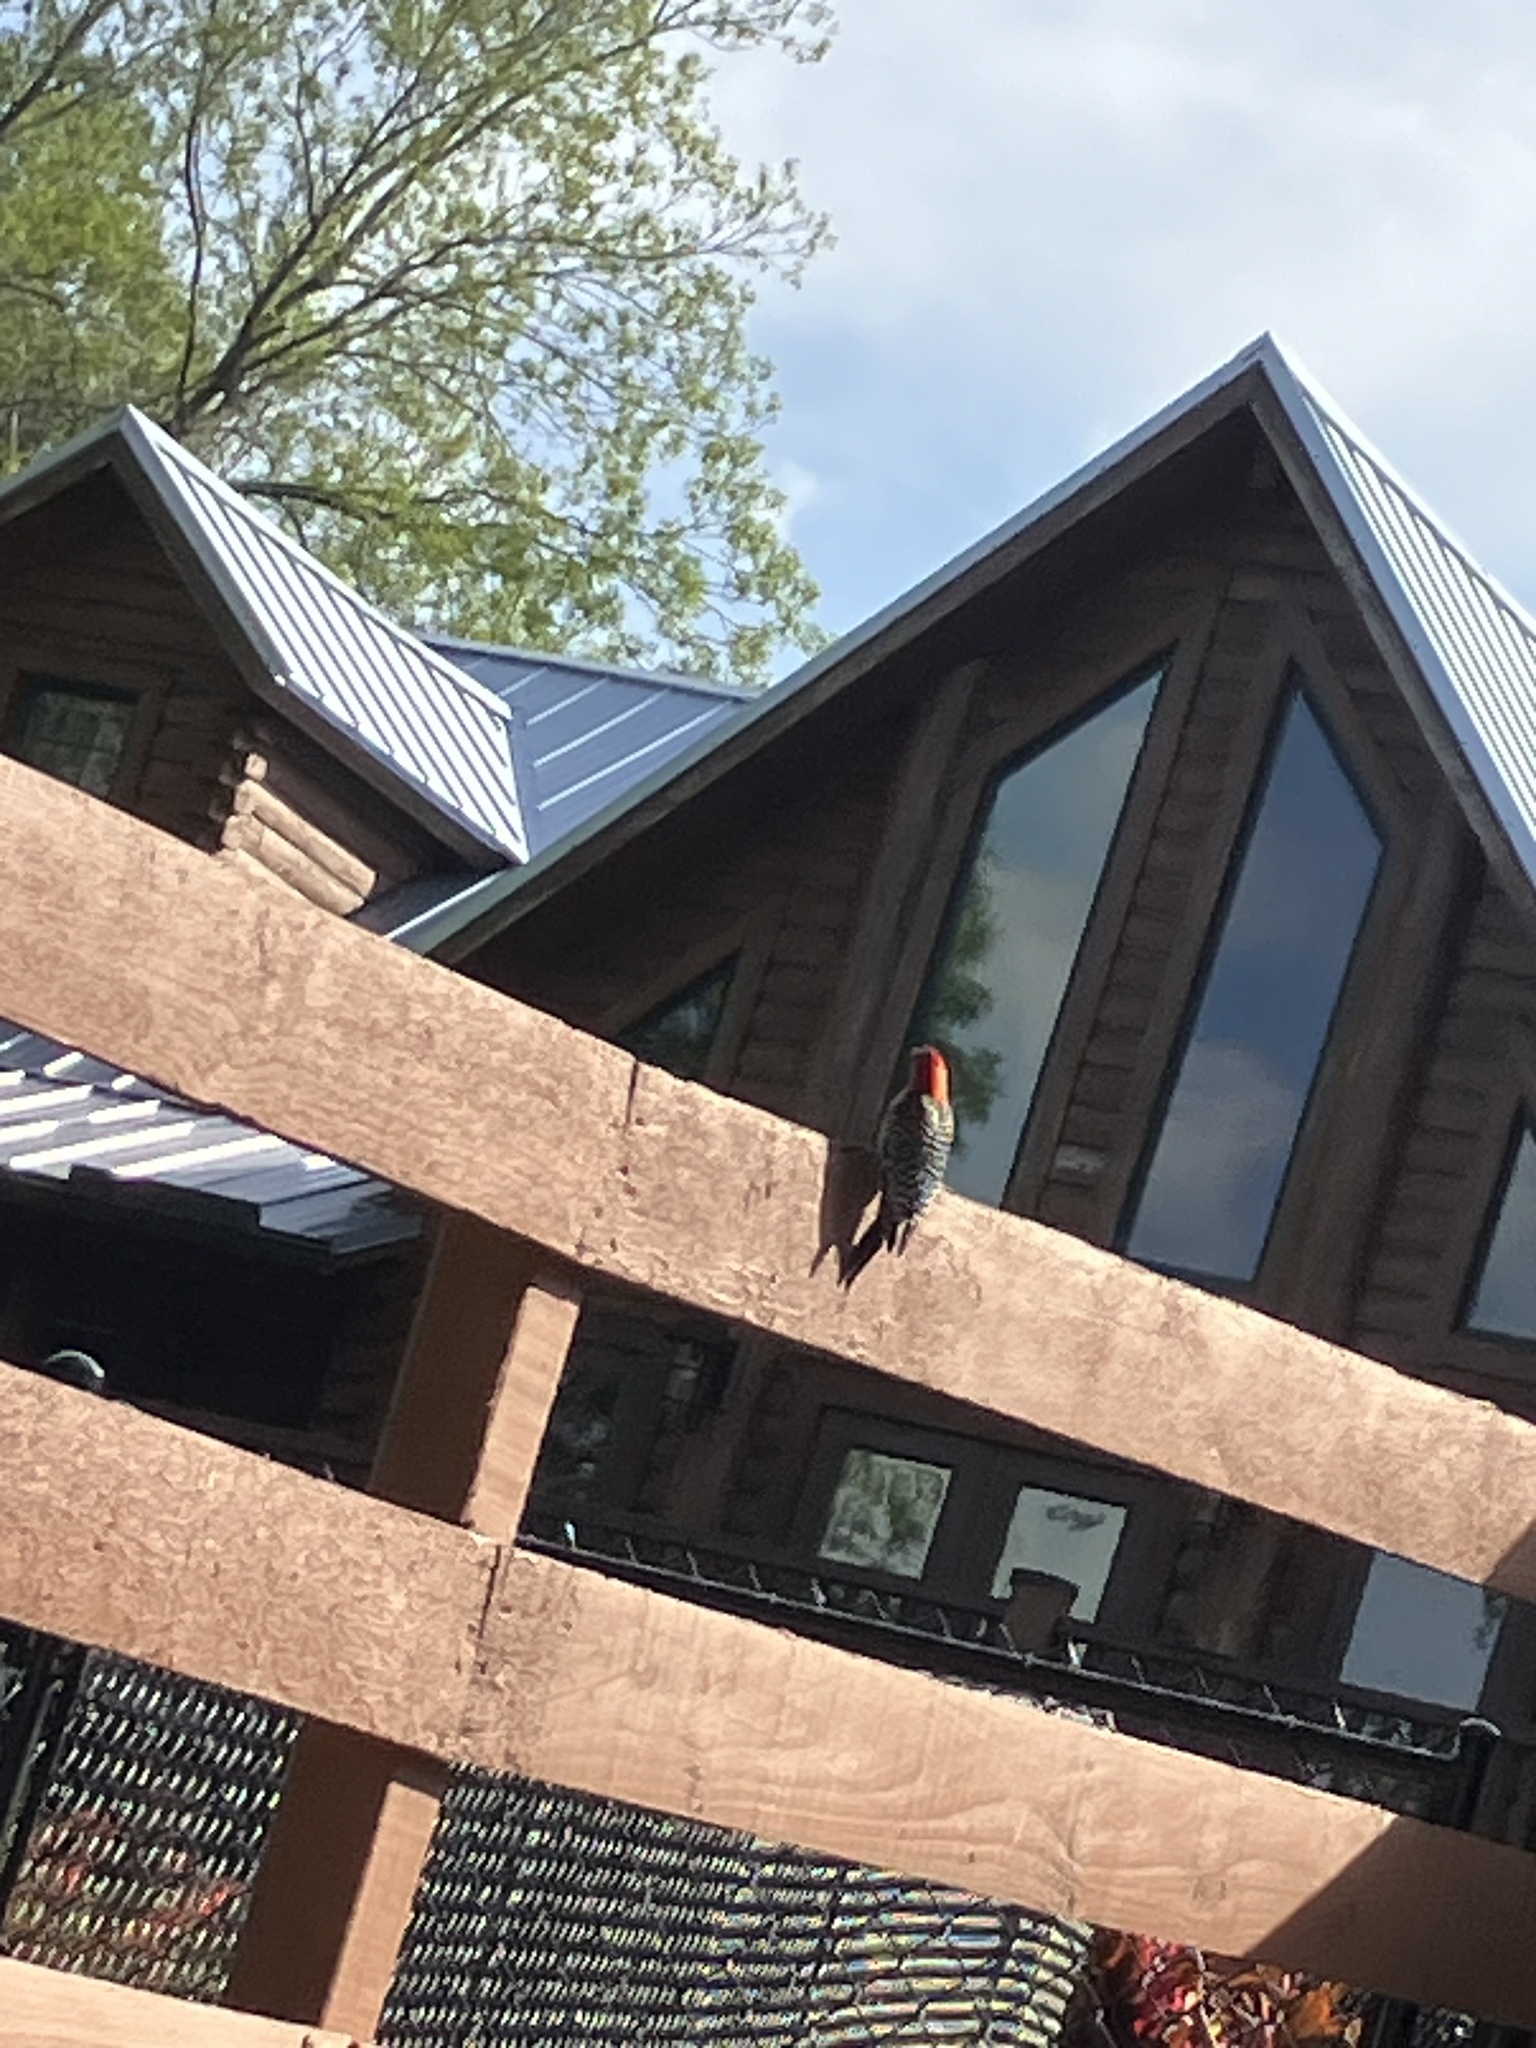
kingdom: Animalia
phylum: Chordata
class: Aves
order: Piciformes
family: Picidae
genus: Melanerpes
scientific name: Melanerpes carolinus
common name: Red-bellied woodpecker
